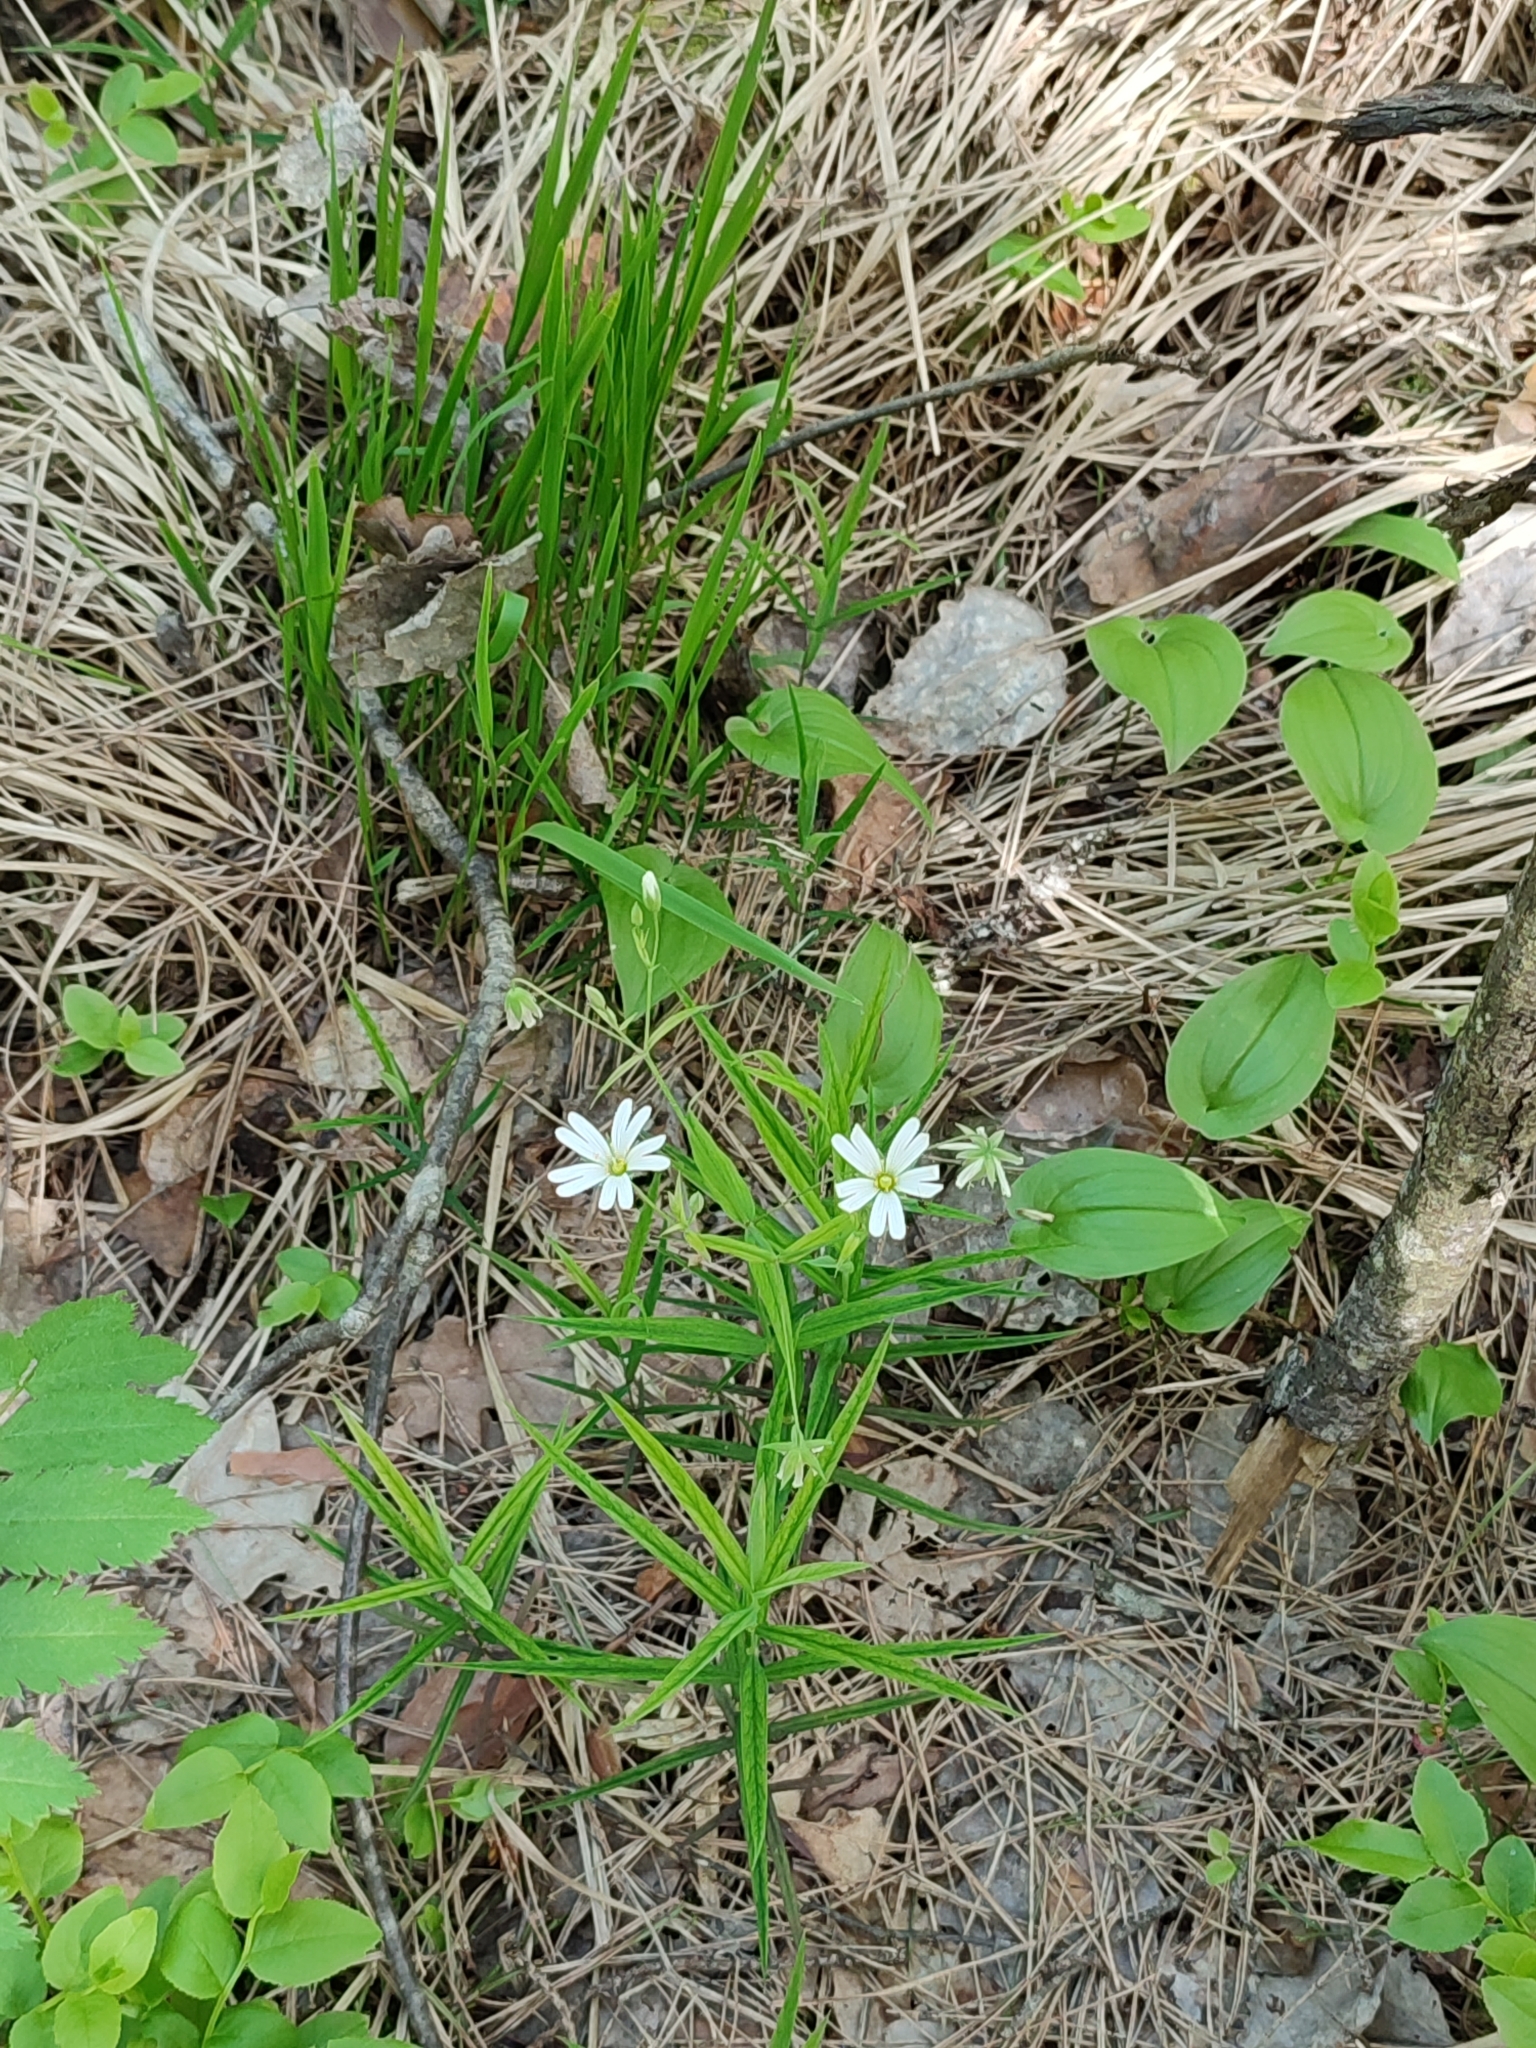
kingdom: Plantae
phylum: Tracheophyta
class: Magnoliopsida
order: Caryophyllales
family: Caryophyllaceae
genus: Rabelera
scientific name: Rabelera holostea
